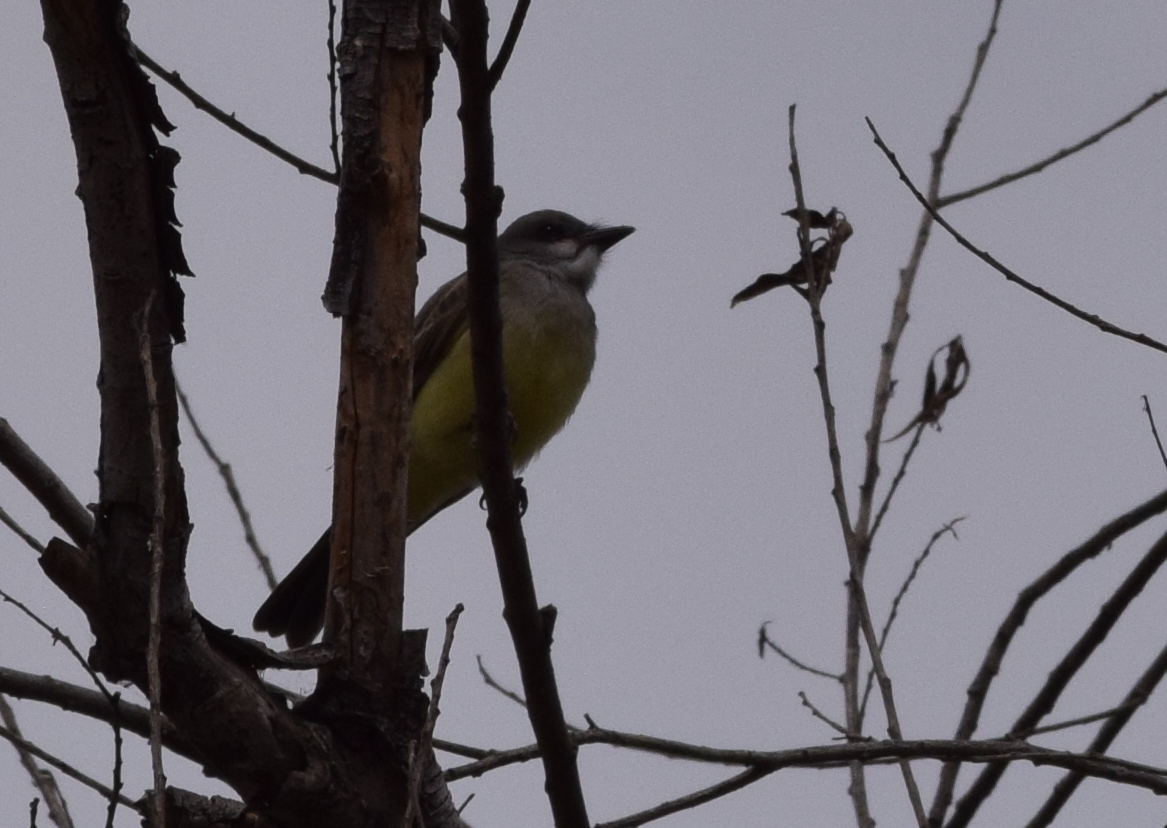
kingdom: Animalia
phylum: Chordata
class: Aves
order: Passeriformes
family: Tyrannidae
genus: Tyrannus
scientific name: Tyrannus vociferans
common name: Cassin's kingbird
